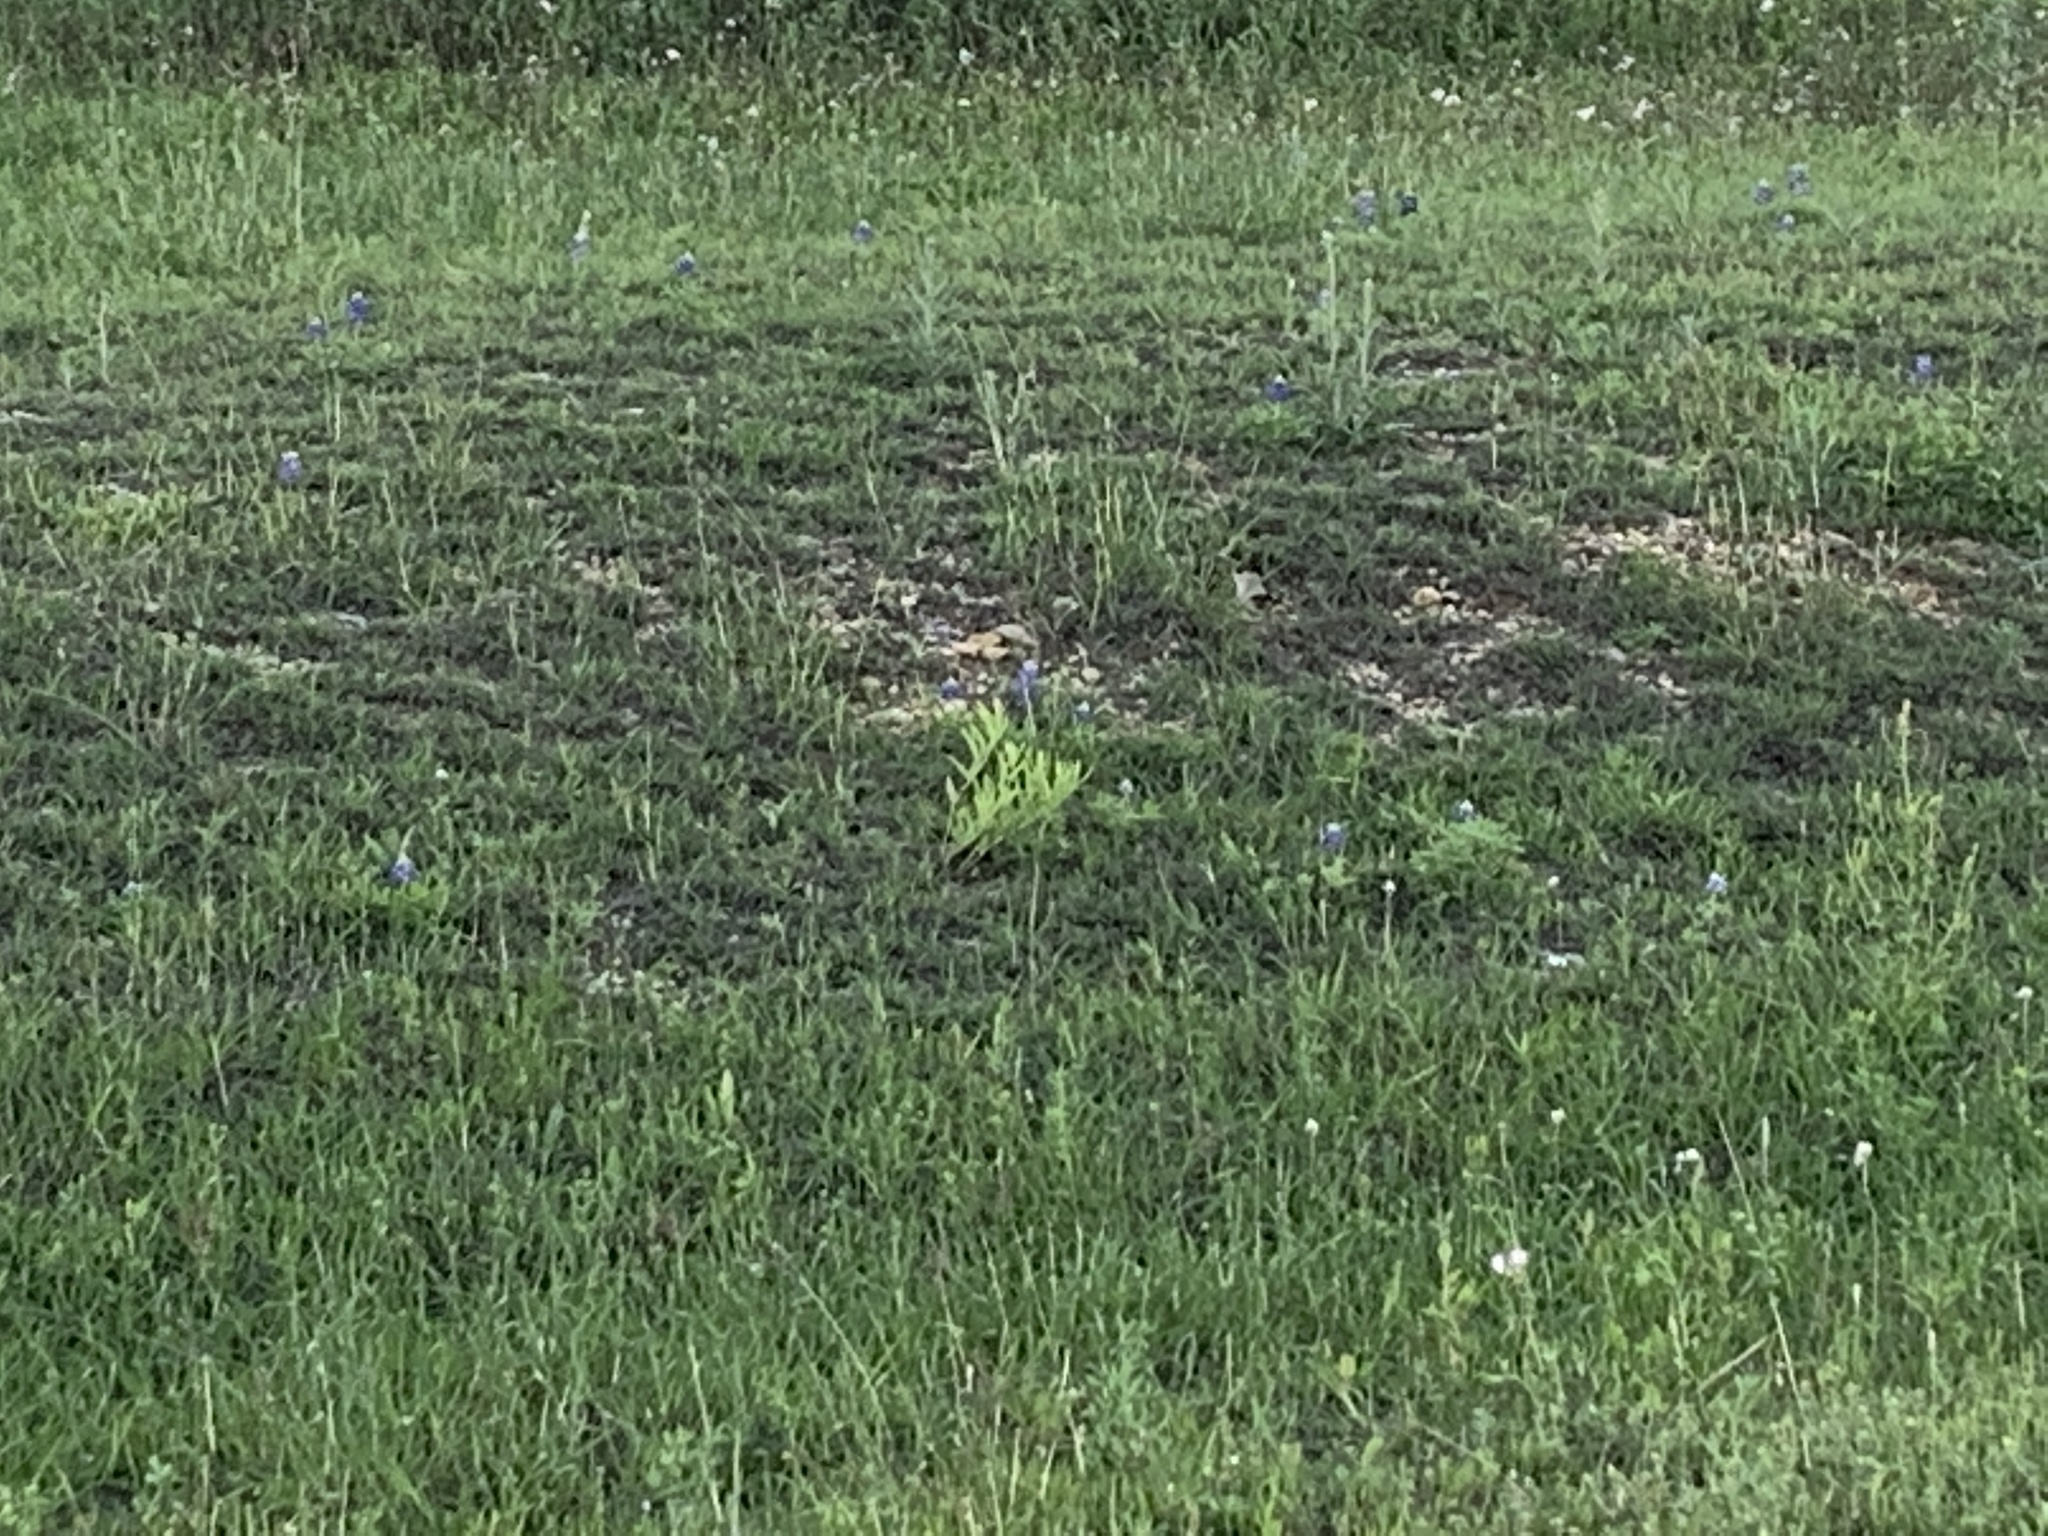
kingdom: Plantae
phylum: Tracheophyta
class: Magnoliopsida
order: Gentianales
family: Apocynaceae
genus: Asclepias
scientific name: Asclepias asperula
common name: Antelope horns
